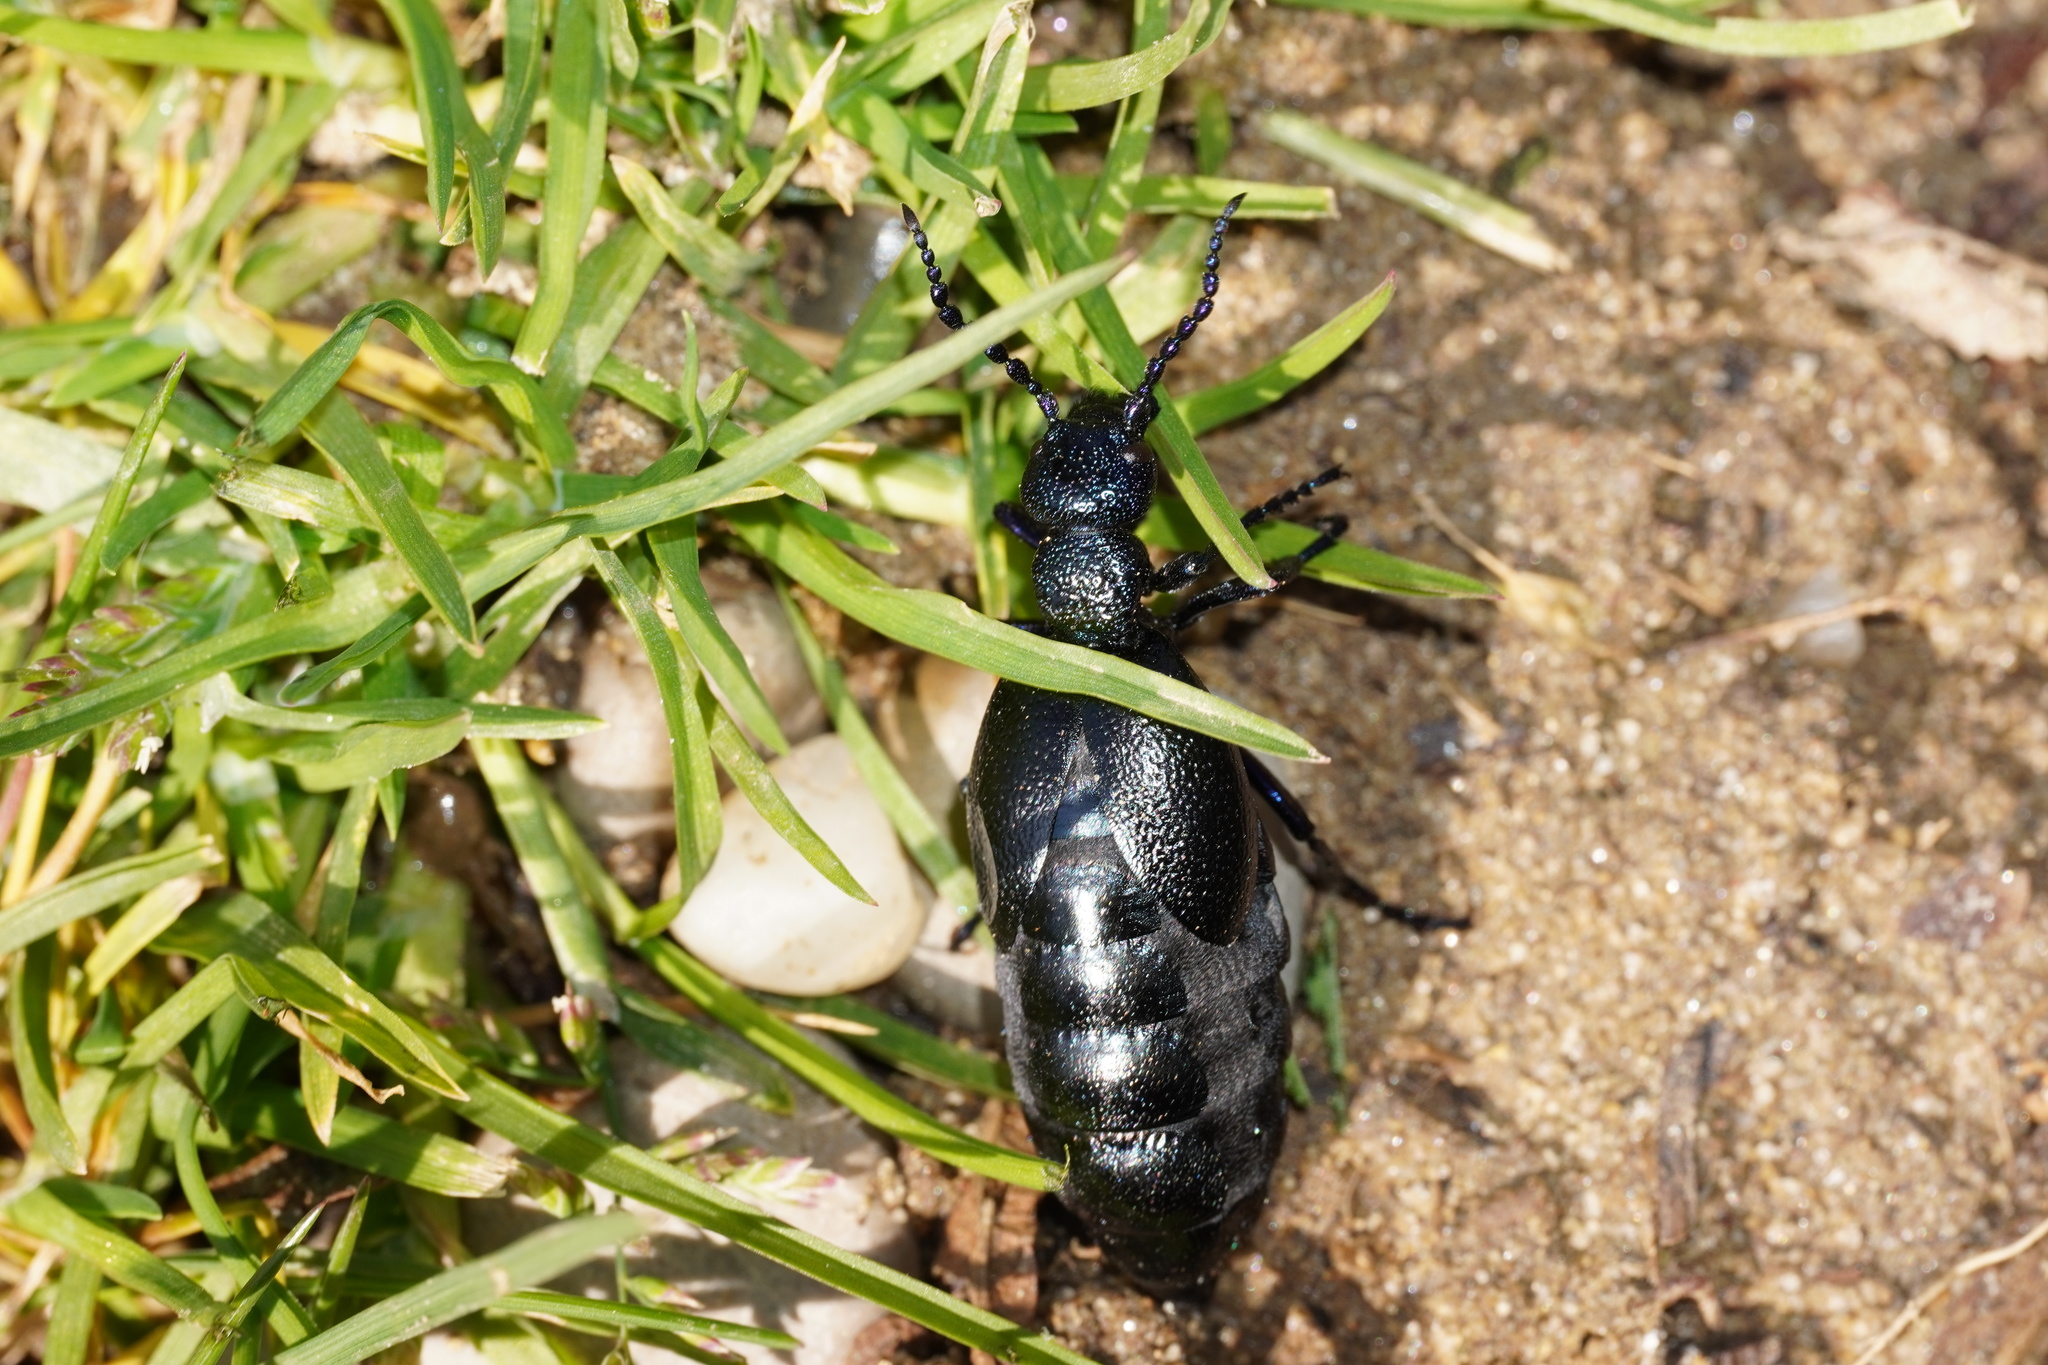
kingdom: Animalia
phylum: Arthropoda
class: Insecta
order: Coleoptera
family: Meloidae
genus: Meloe
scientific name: Meloe proscarabaeus
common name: Black oil-beetle
